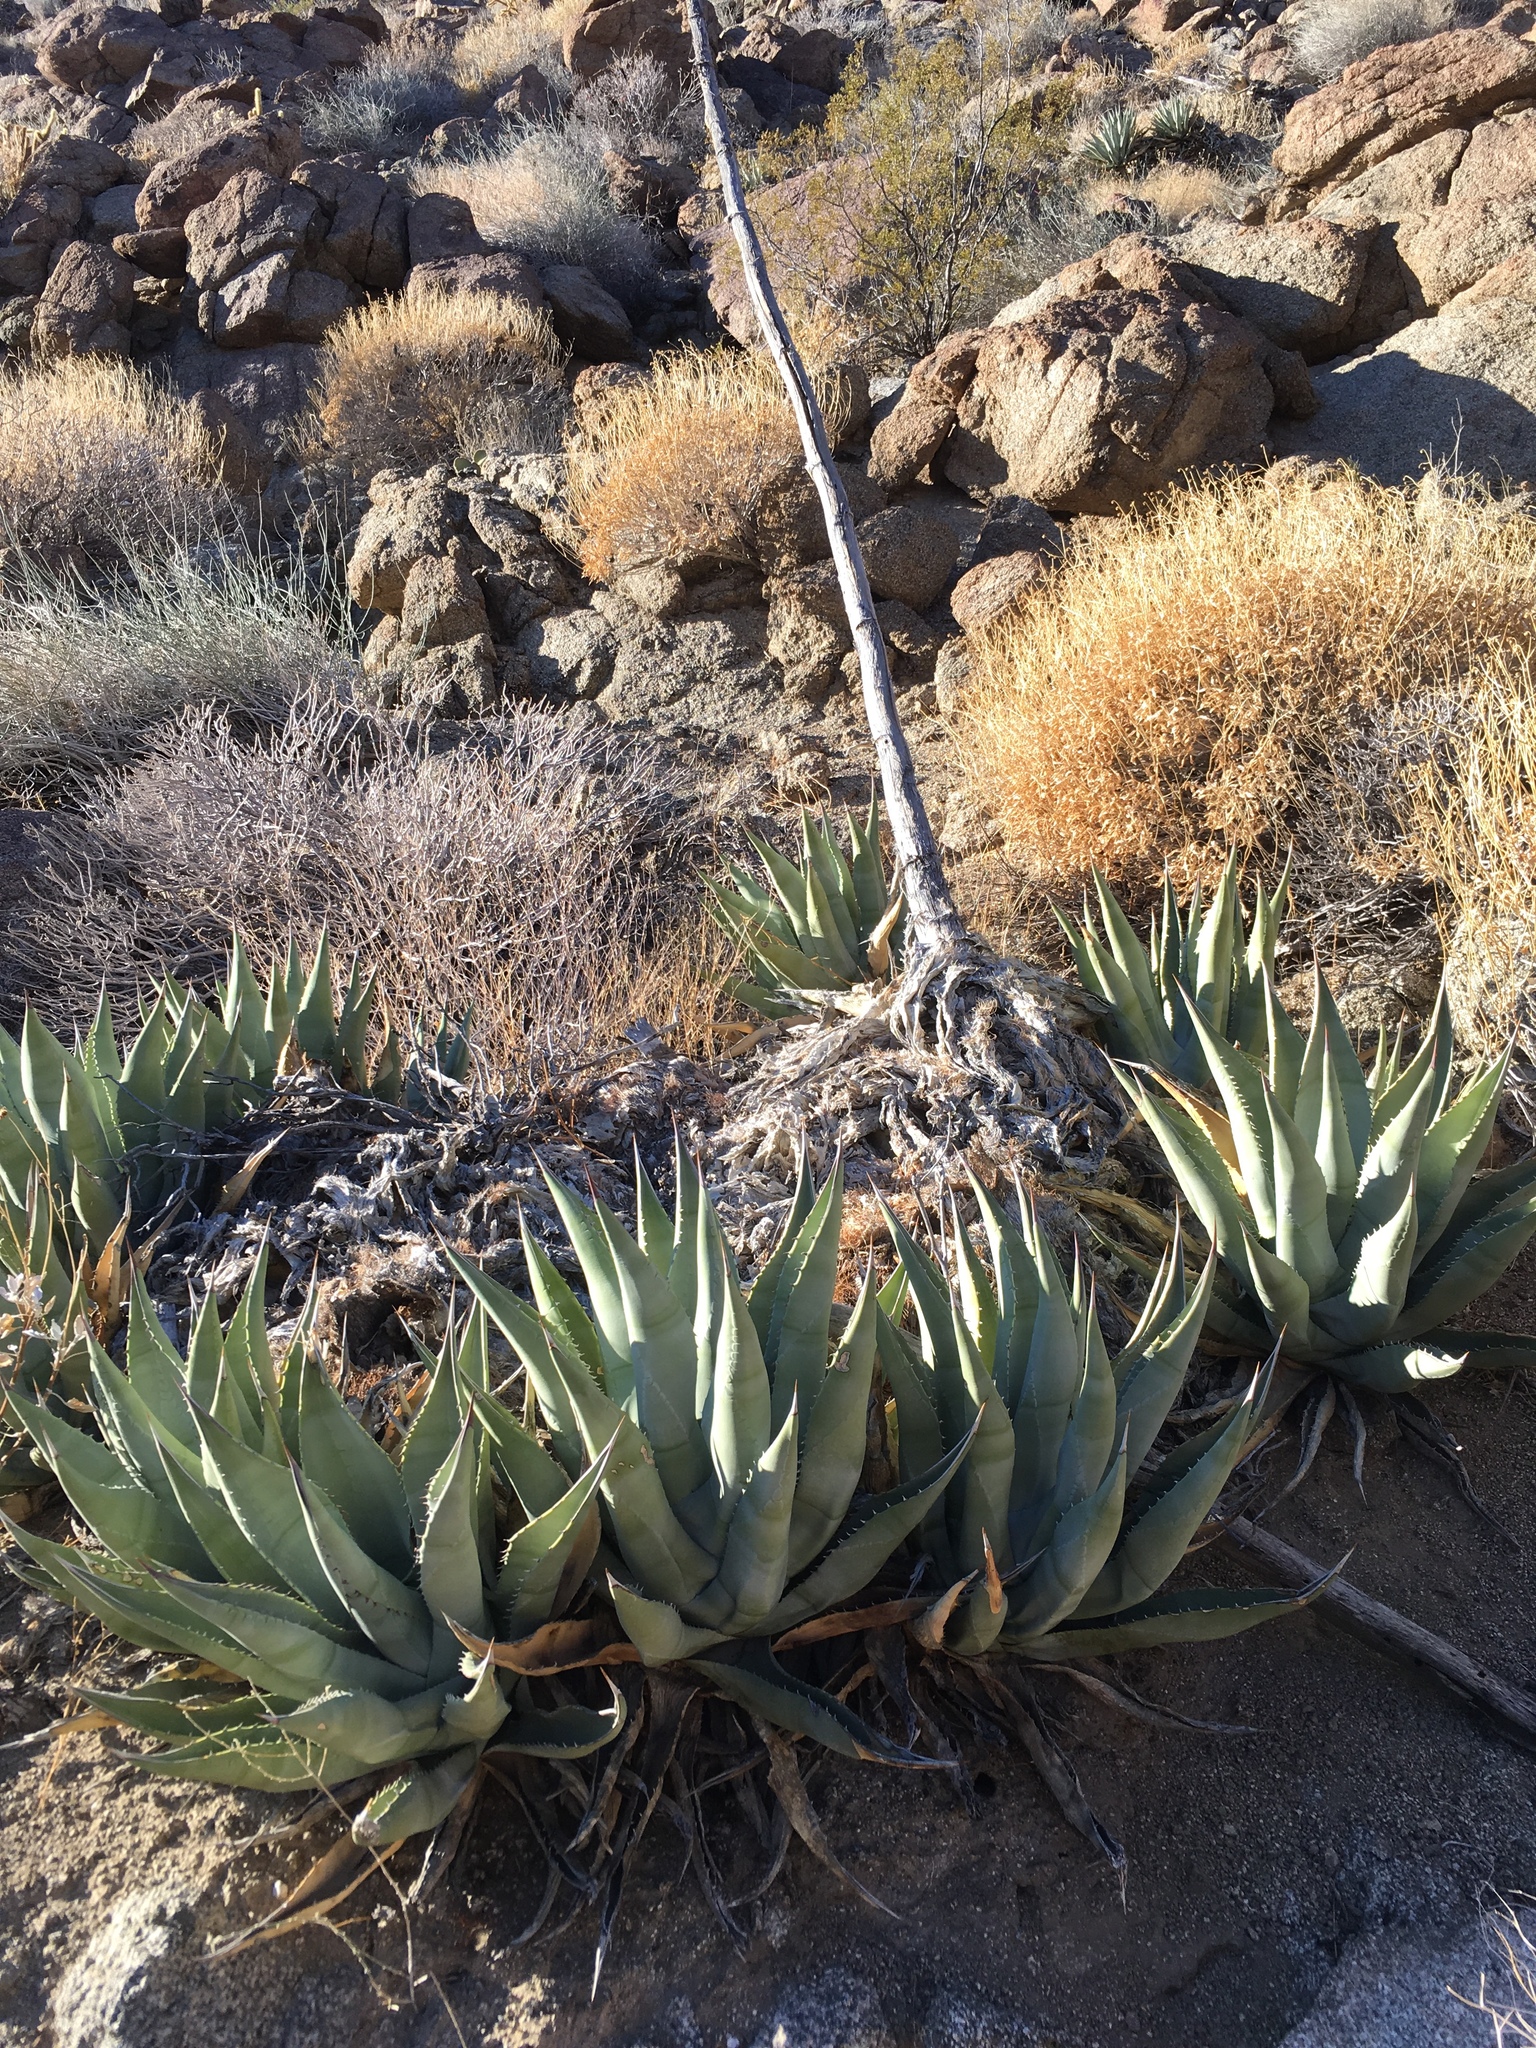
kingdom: Plantae
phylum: Tracheophyta
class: Liliopsida
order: Asparagales
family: Asparagaceae
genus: Agave
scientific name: Agave deserti
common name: Desert agave
